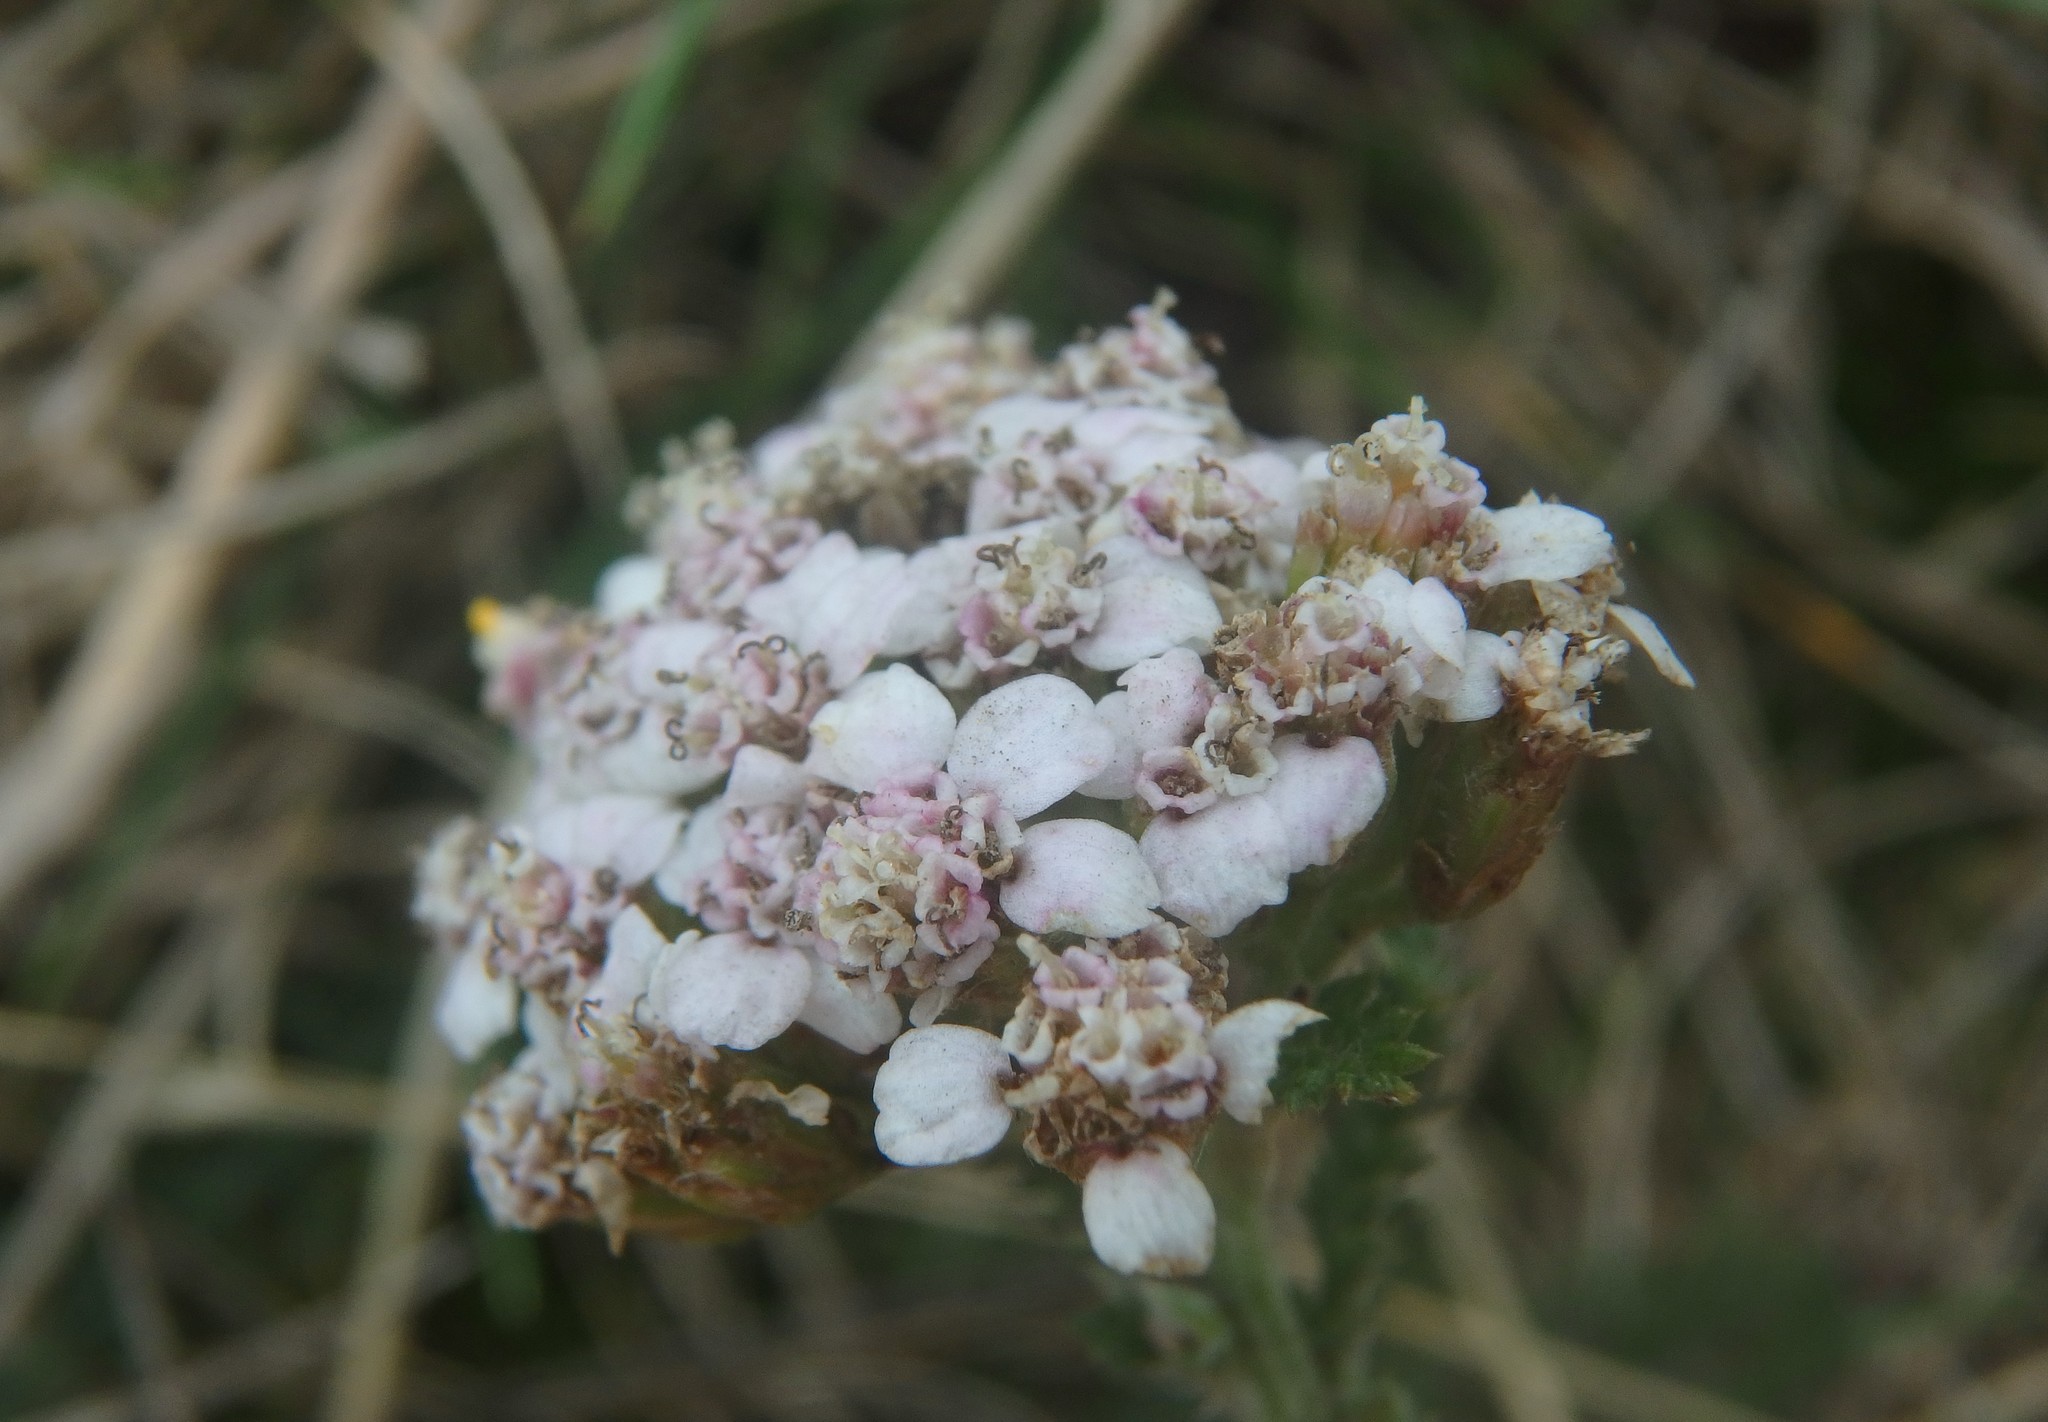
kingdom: Plantae
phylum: Tracheophyta
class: Magnoliopsida
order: Asterales
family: Asteraceae
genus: Achillea
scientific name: Achillea millefolium
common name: Yarrow
